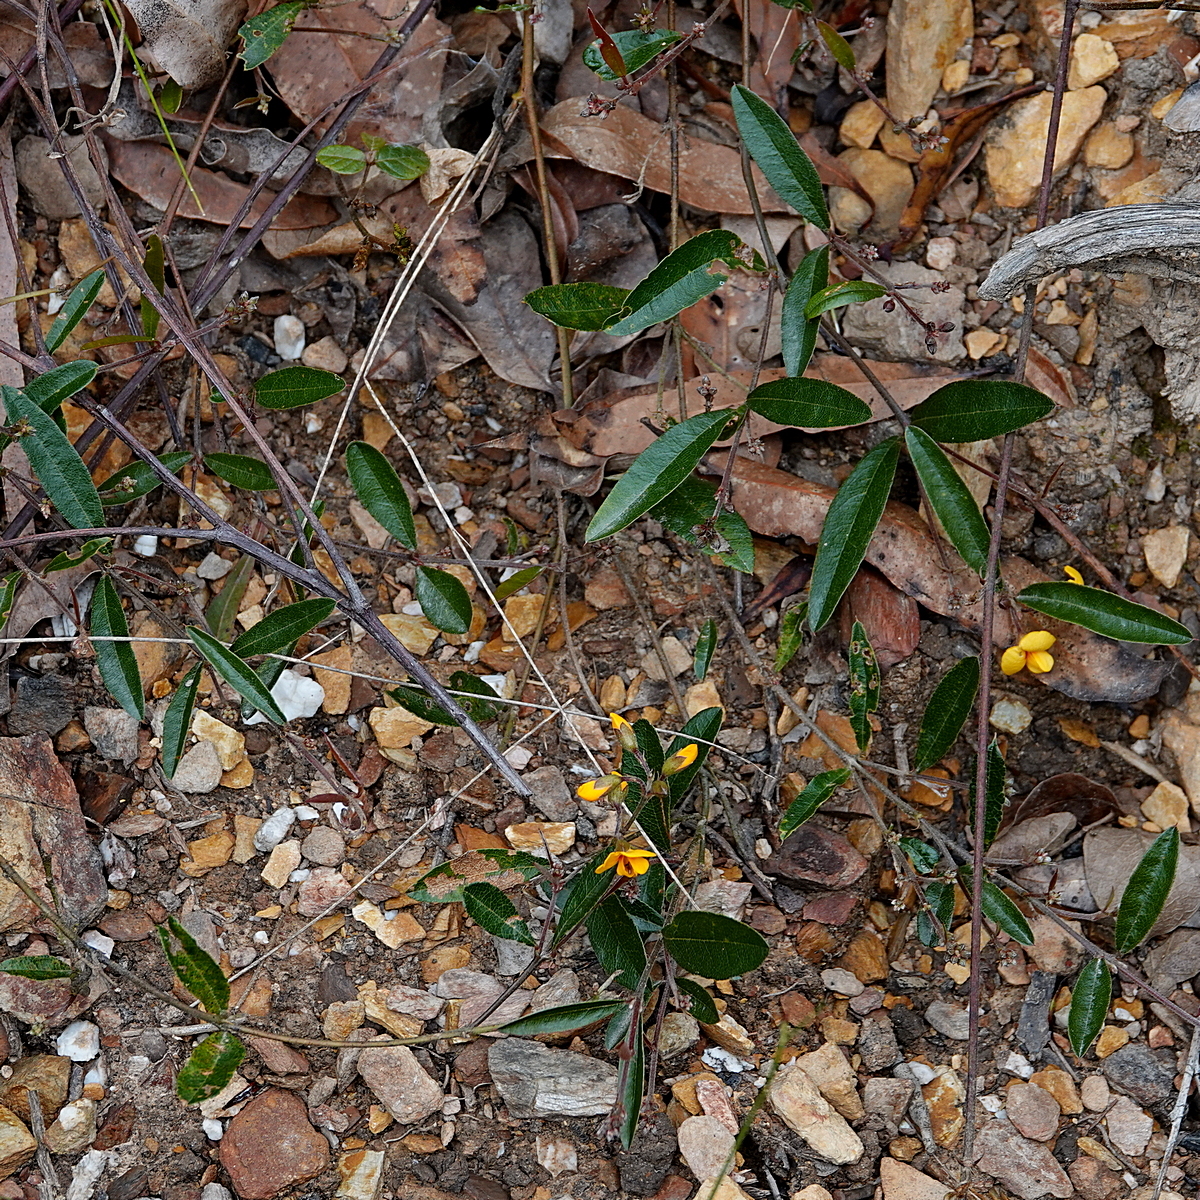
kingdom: Plantae
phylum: Tracheophyta
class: Magnoliopsida
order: Fabales
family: Fabaceae
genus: Podolobium
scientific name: Podolobium scandens
